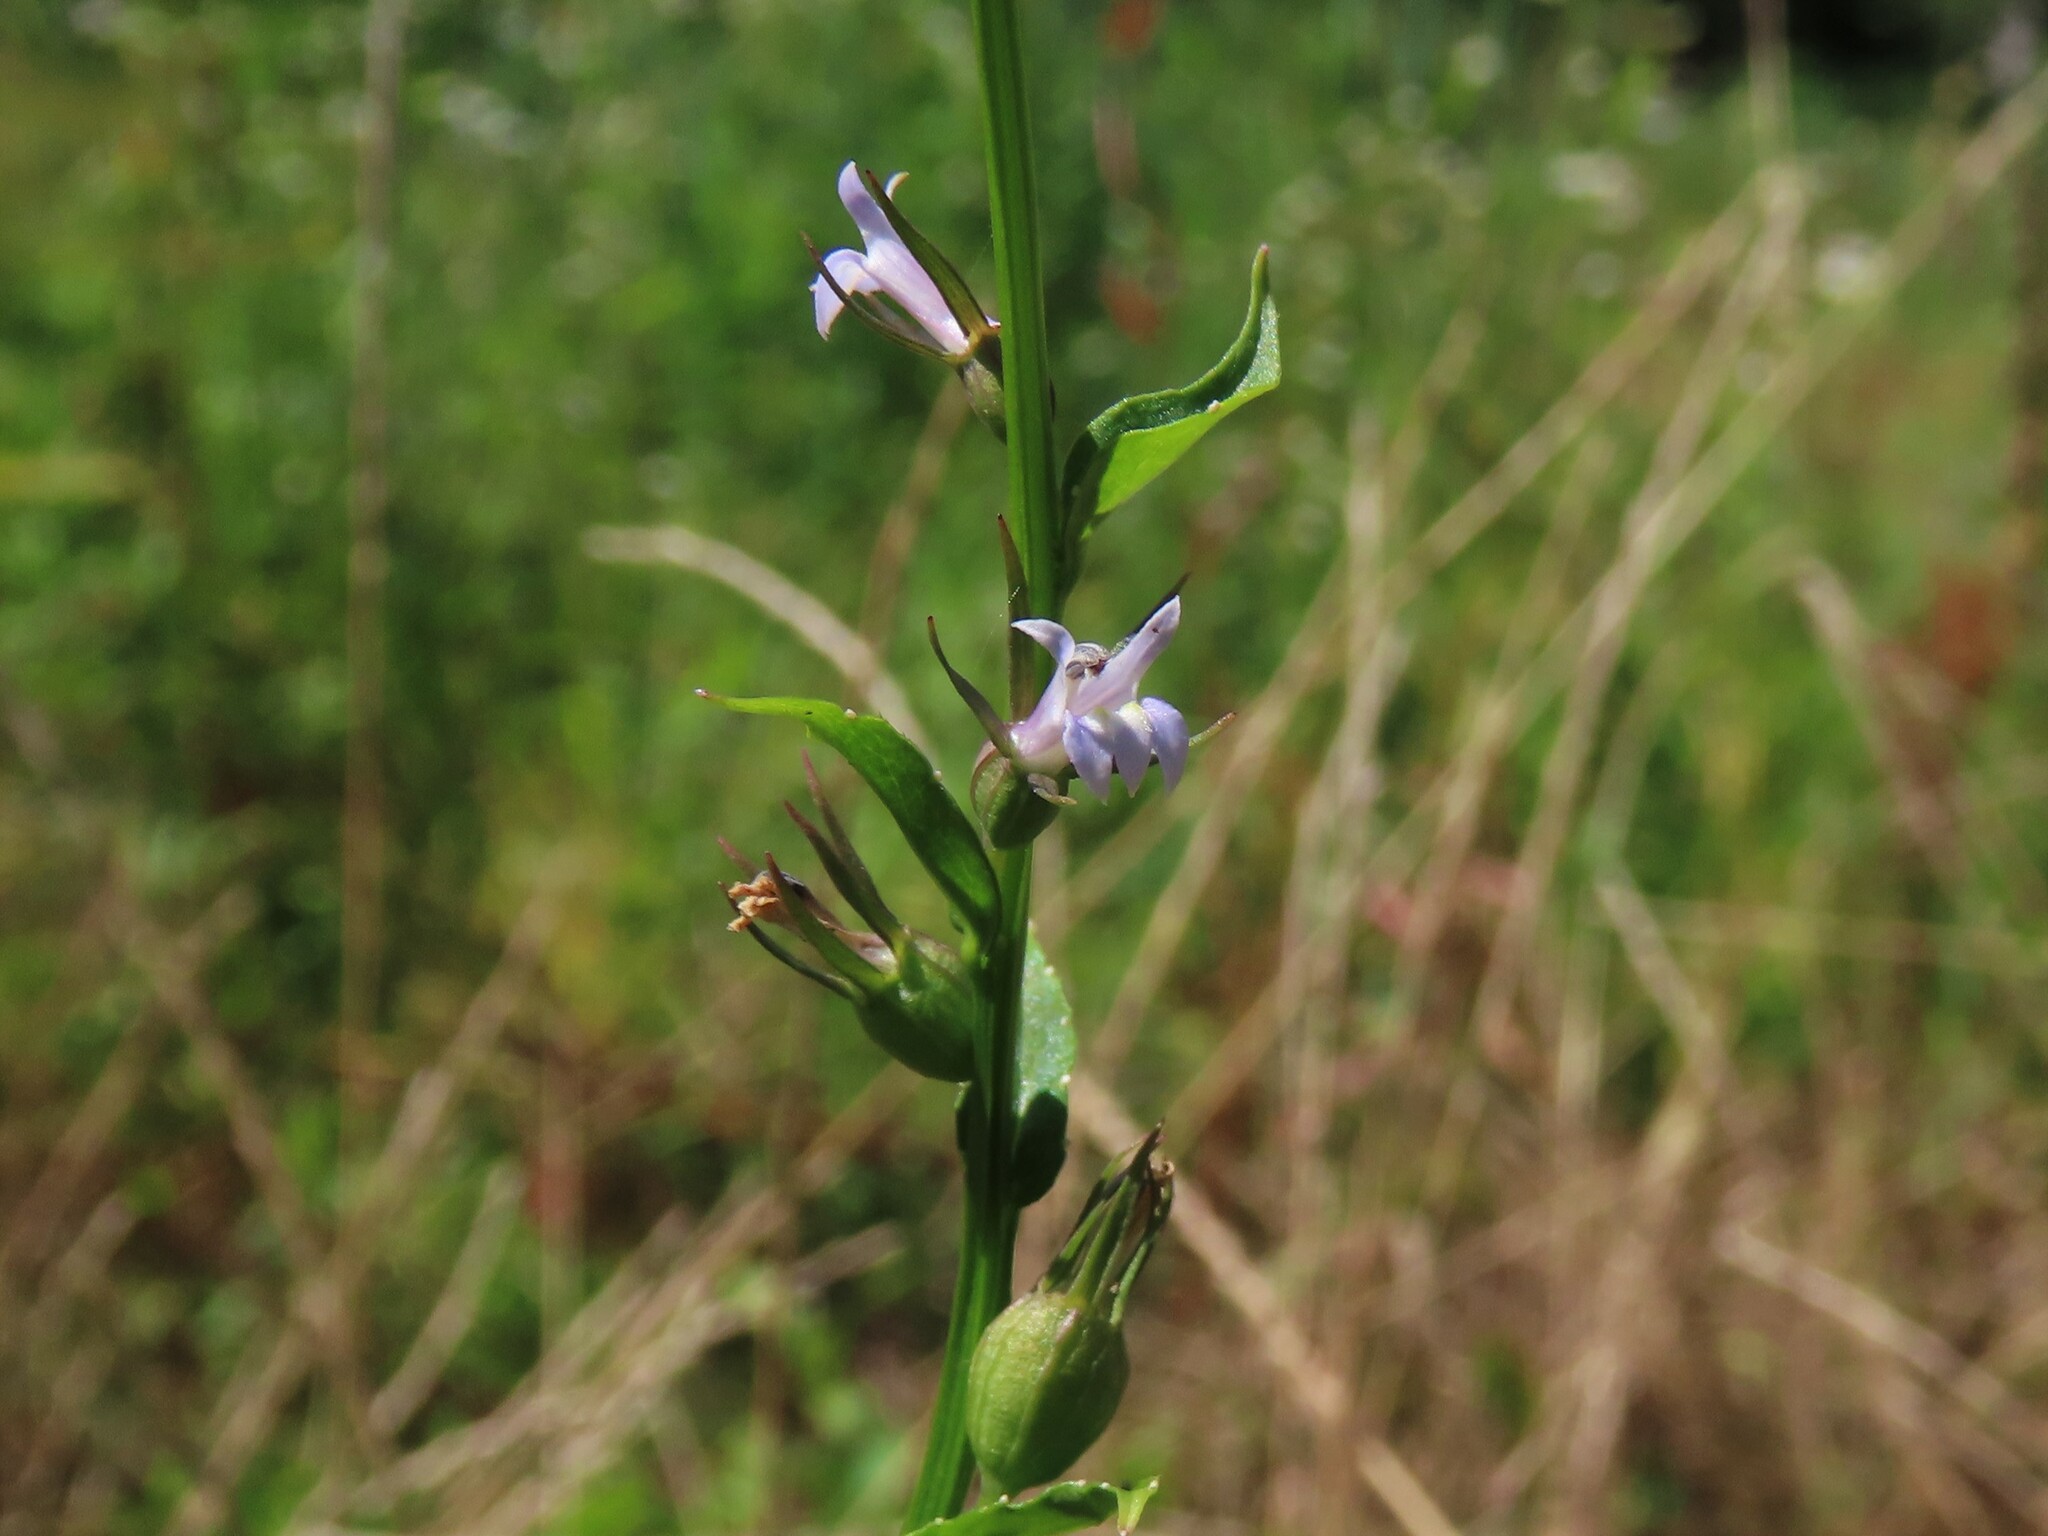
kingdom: Plantae
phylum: Tracheophyta
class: Magnoliopsida
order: Asterales
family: Campanulaceae
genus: Lobelia
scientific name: Lobelia inflata
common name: Indian tobacco
